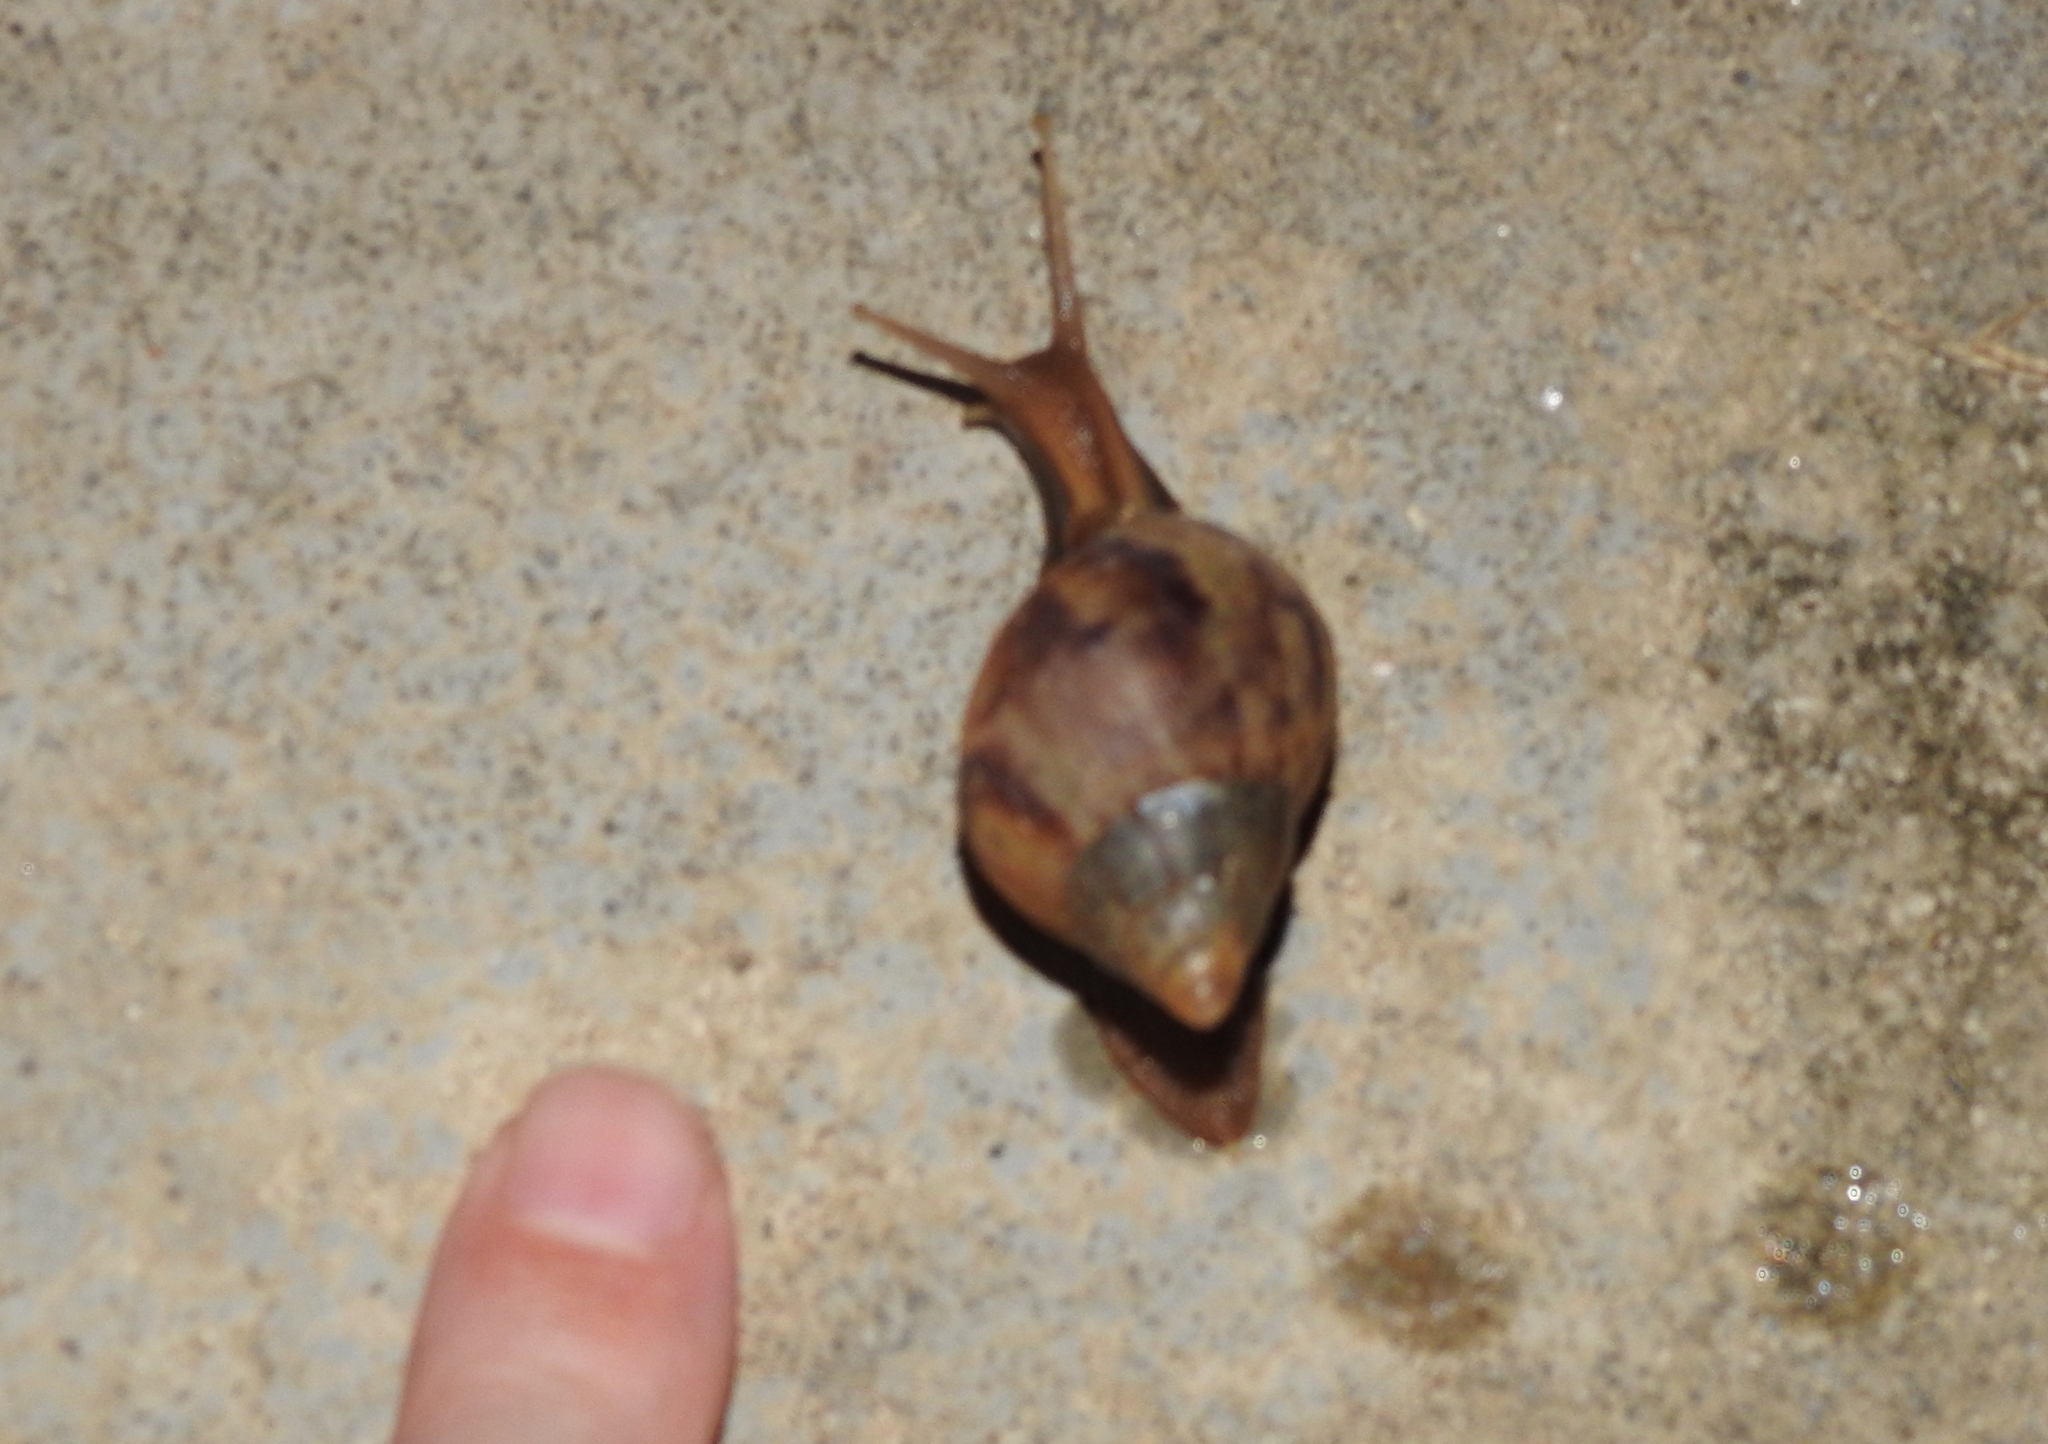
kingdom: Animalia
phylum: Mollusca
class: Gastropoda
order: Stylommatophora
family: Achatinidae
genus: Lissachatina
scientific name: Lissachatina fulica
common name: Giant african snail
